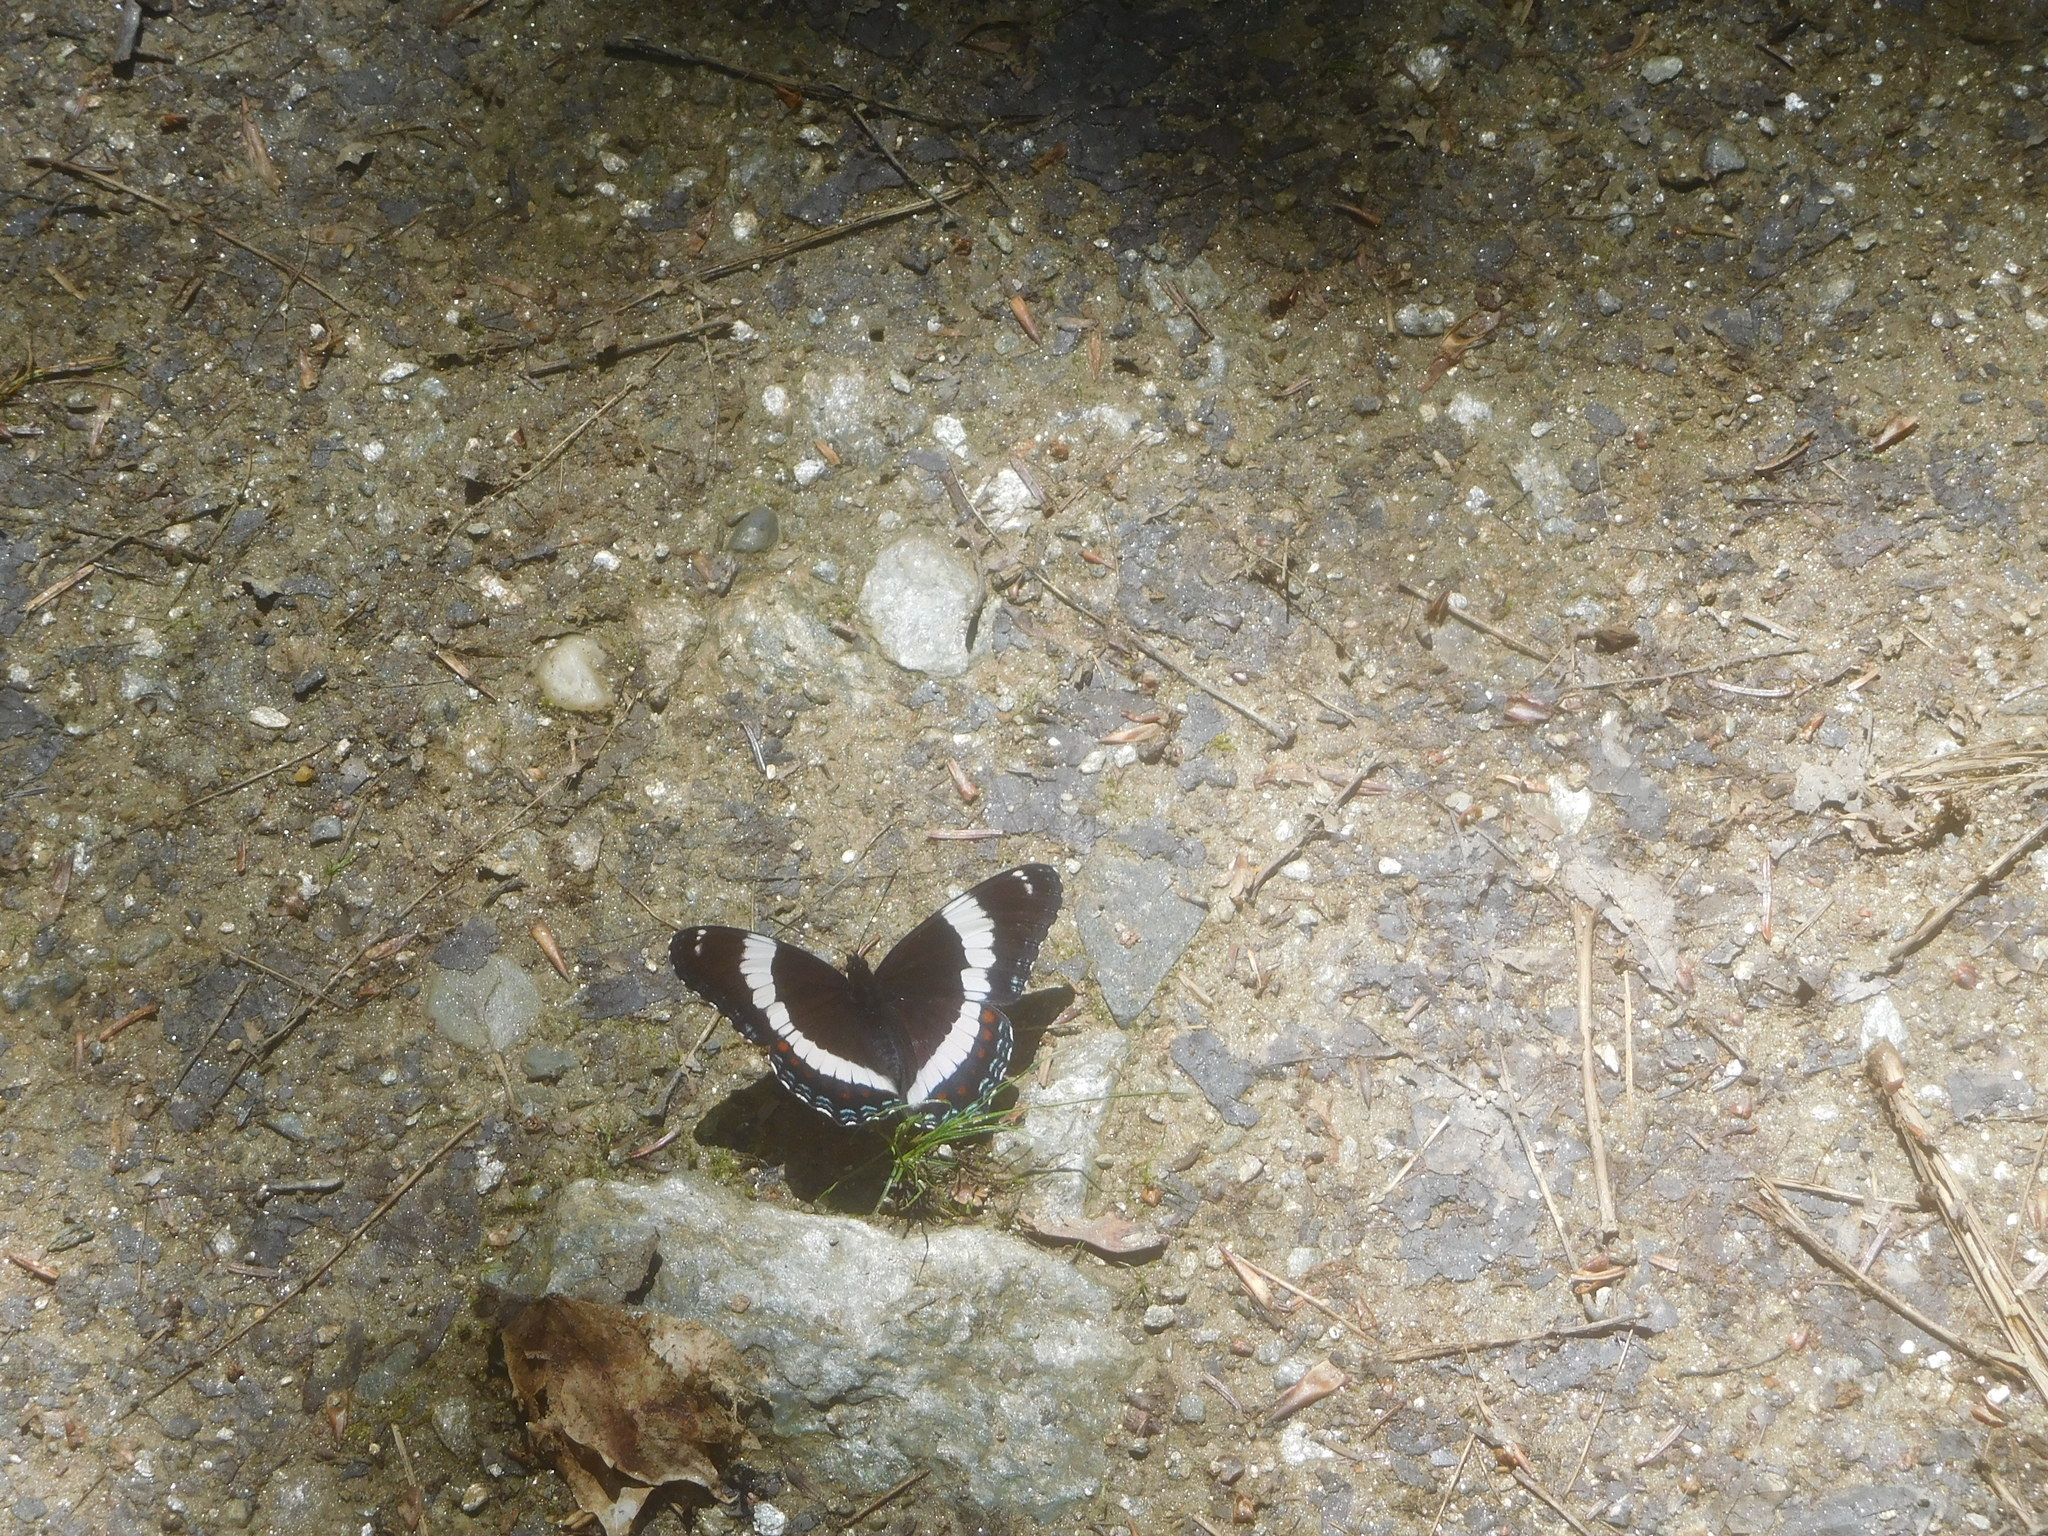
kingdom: Animalia
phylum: Arthropoda
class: Insecta
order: Lepidoptera
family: Nymphalidae
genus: Limenitis
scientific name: Limenitis arthemis
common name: Red-spotted admiral
